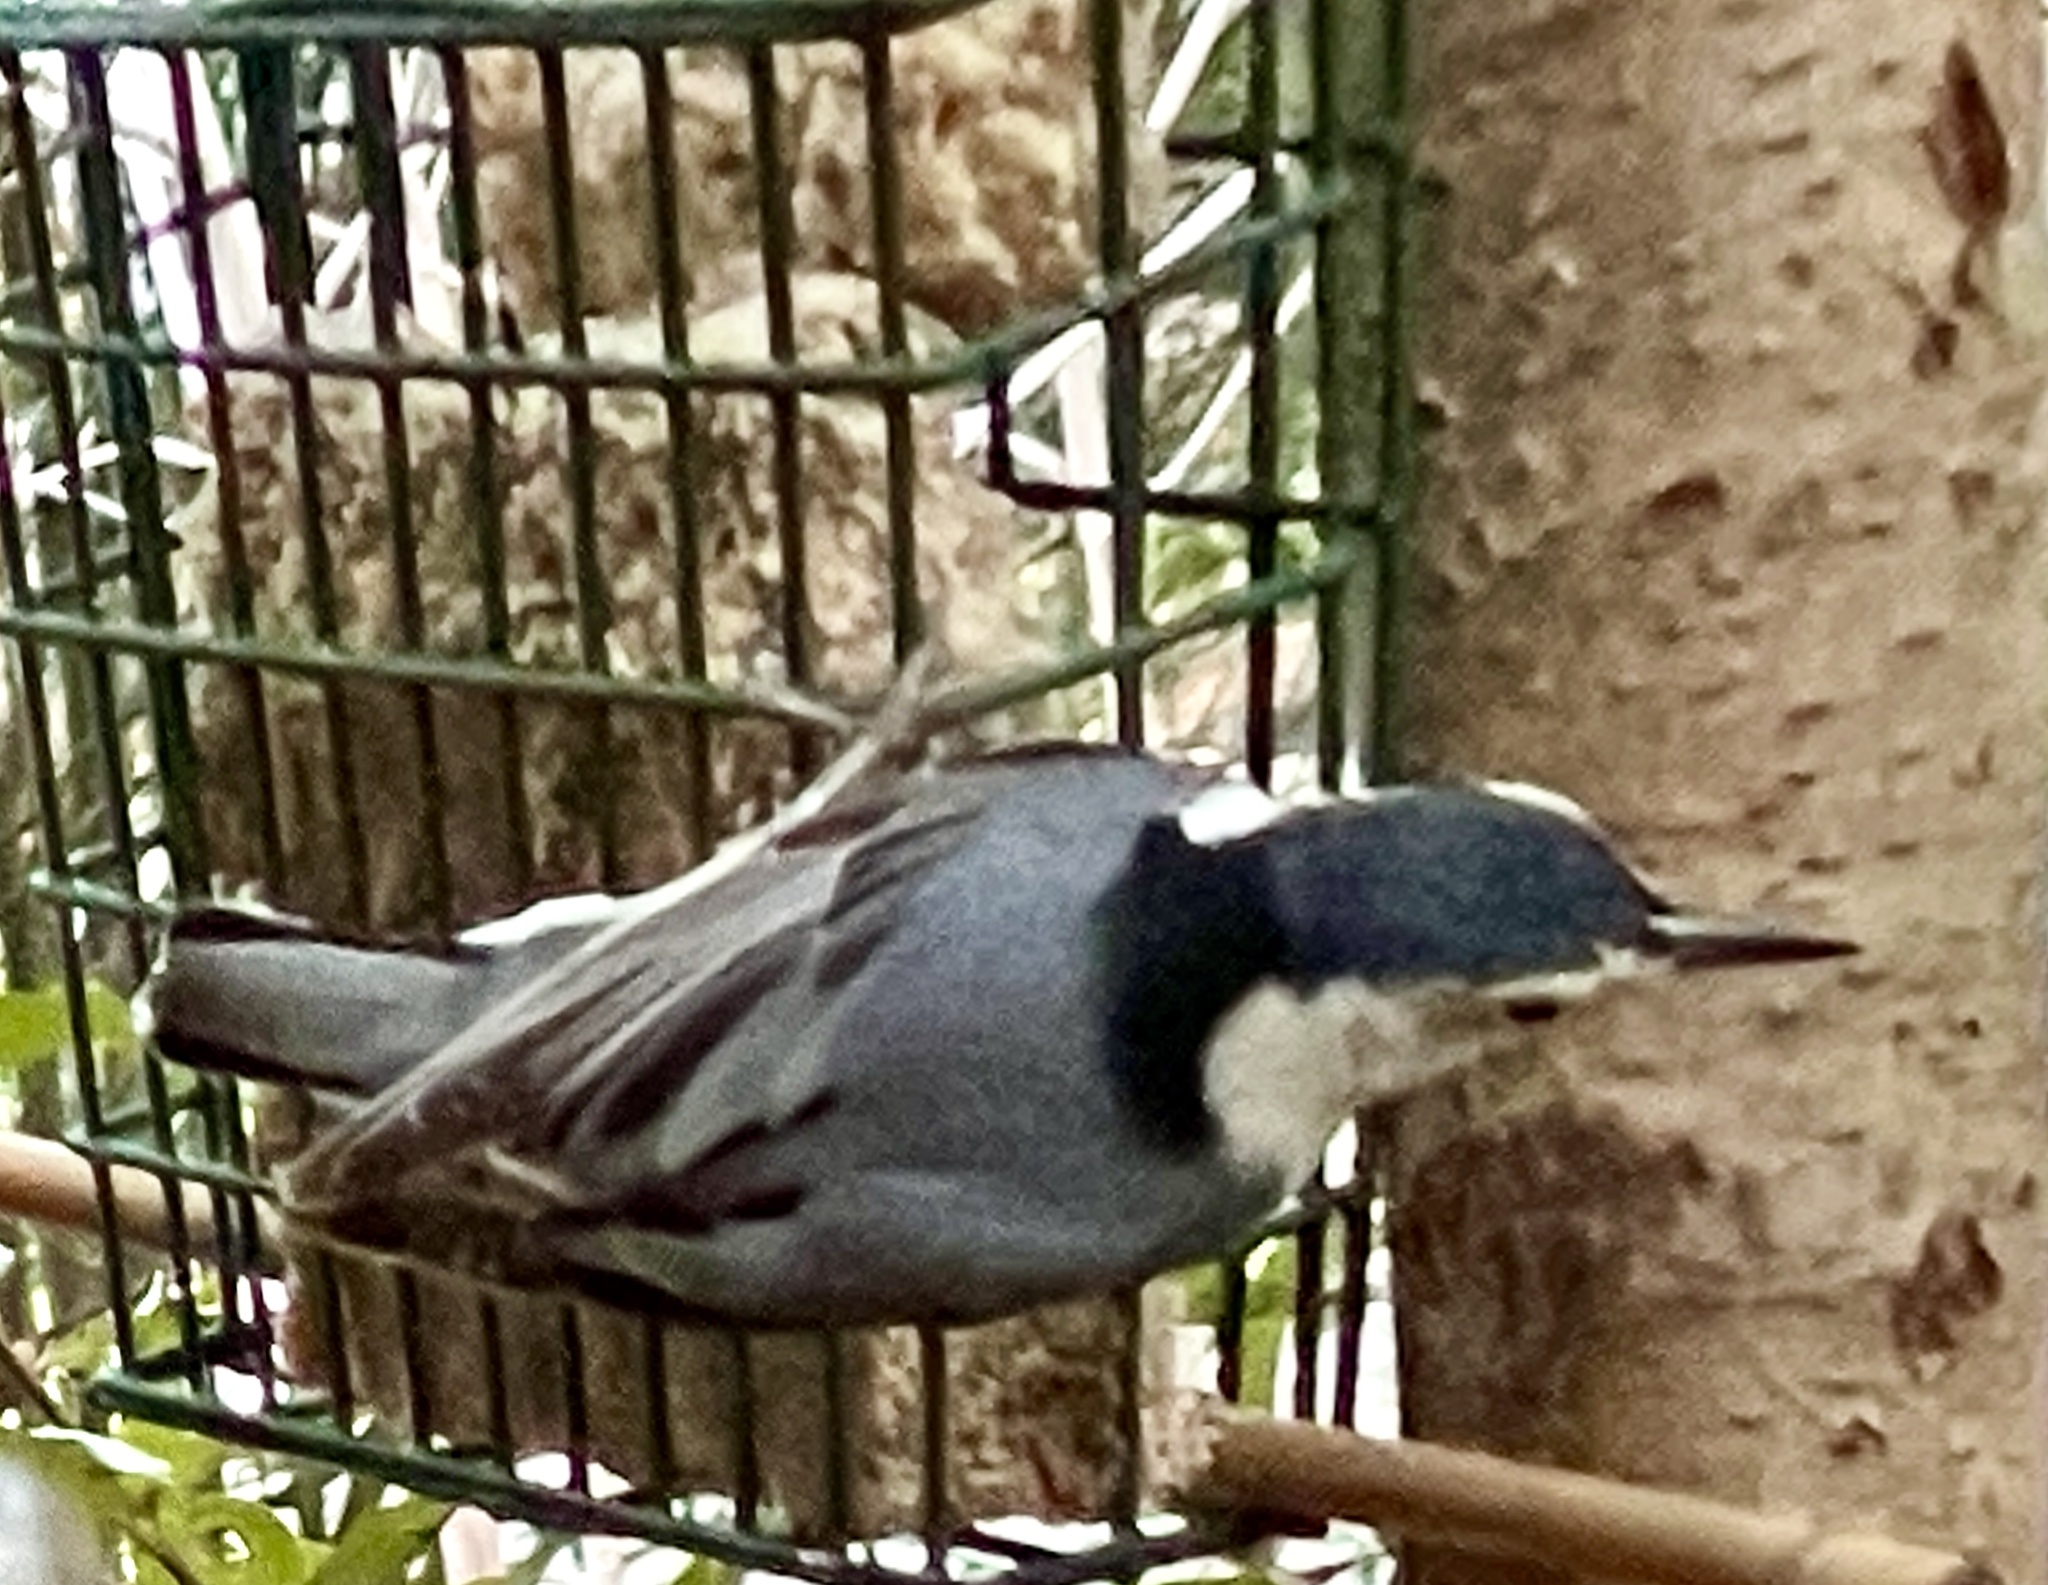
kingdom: Animalia
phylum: Chordata
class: Aves
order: Passeriformes
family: Sittidae
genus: Sitta
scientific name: Sitta carolinensis
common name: White-breasted nuthatch
